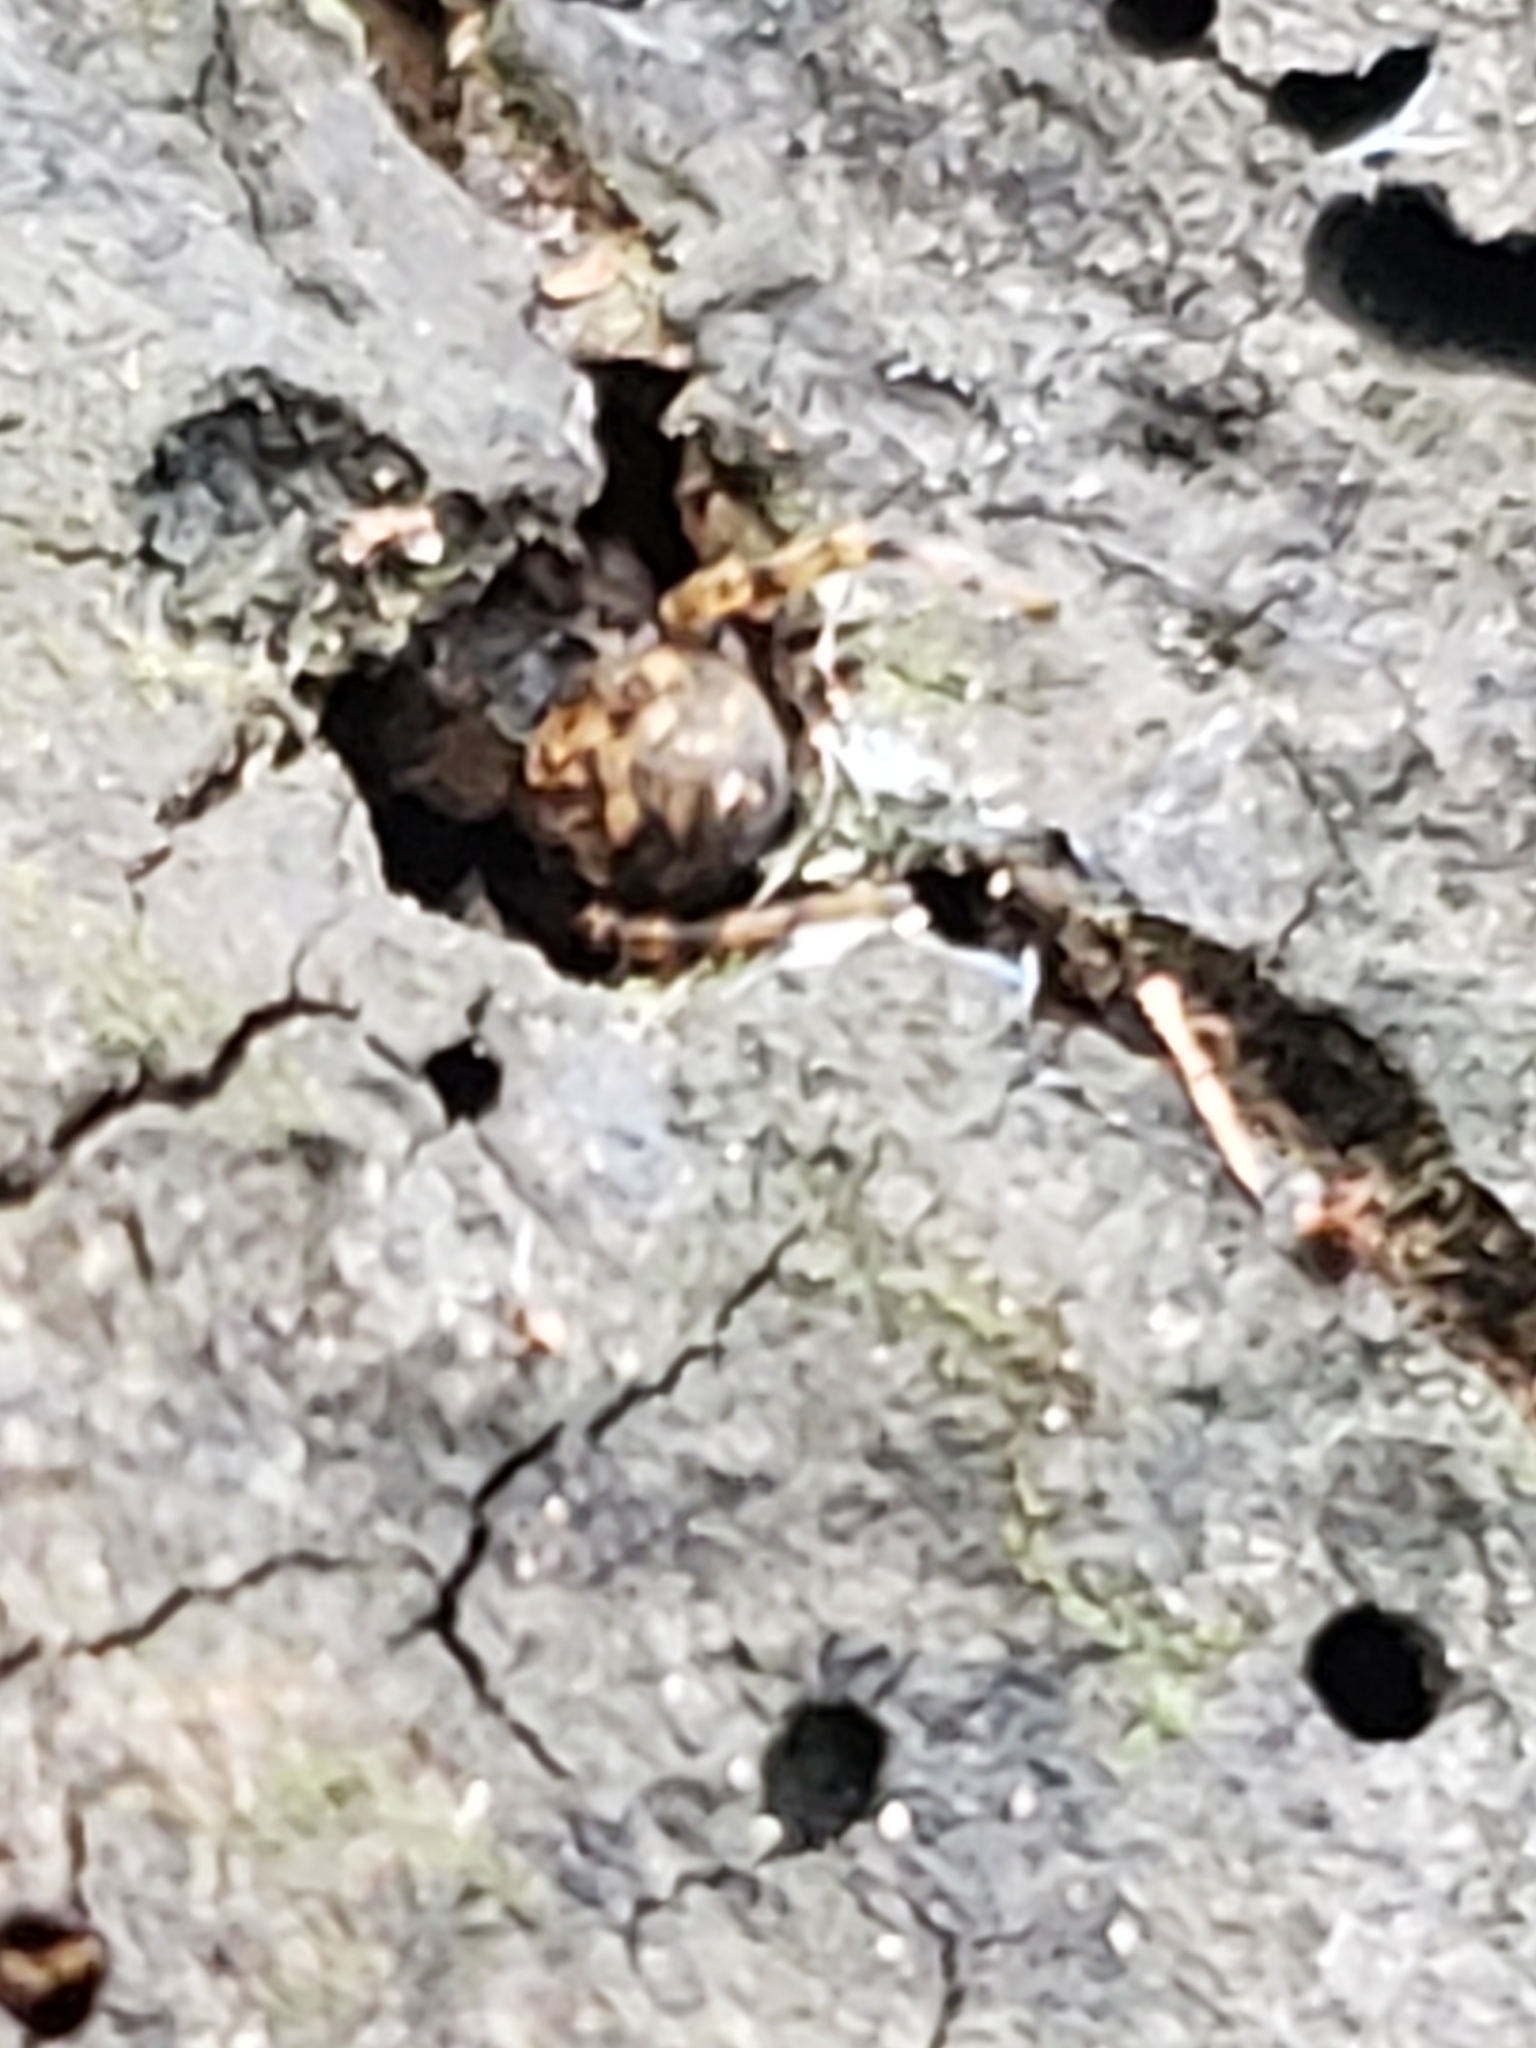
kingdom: Animalia
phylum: Arthropoda
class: Arachnida
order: Araneae
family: Salticidae
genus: Naphrys
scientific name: Naphrys pulex
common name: Flea jumping spider
